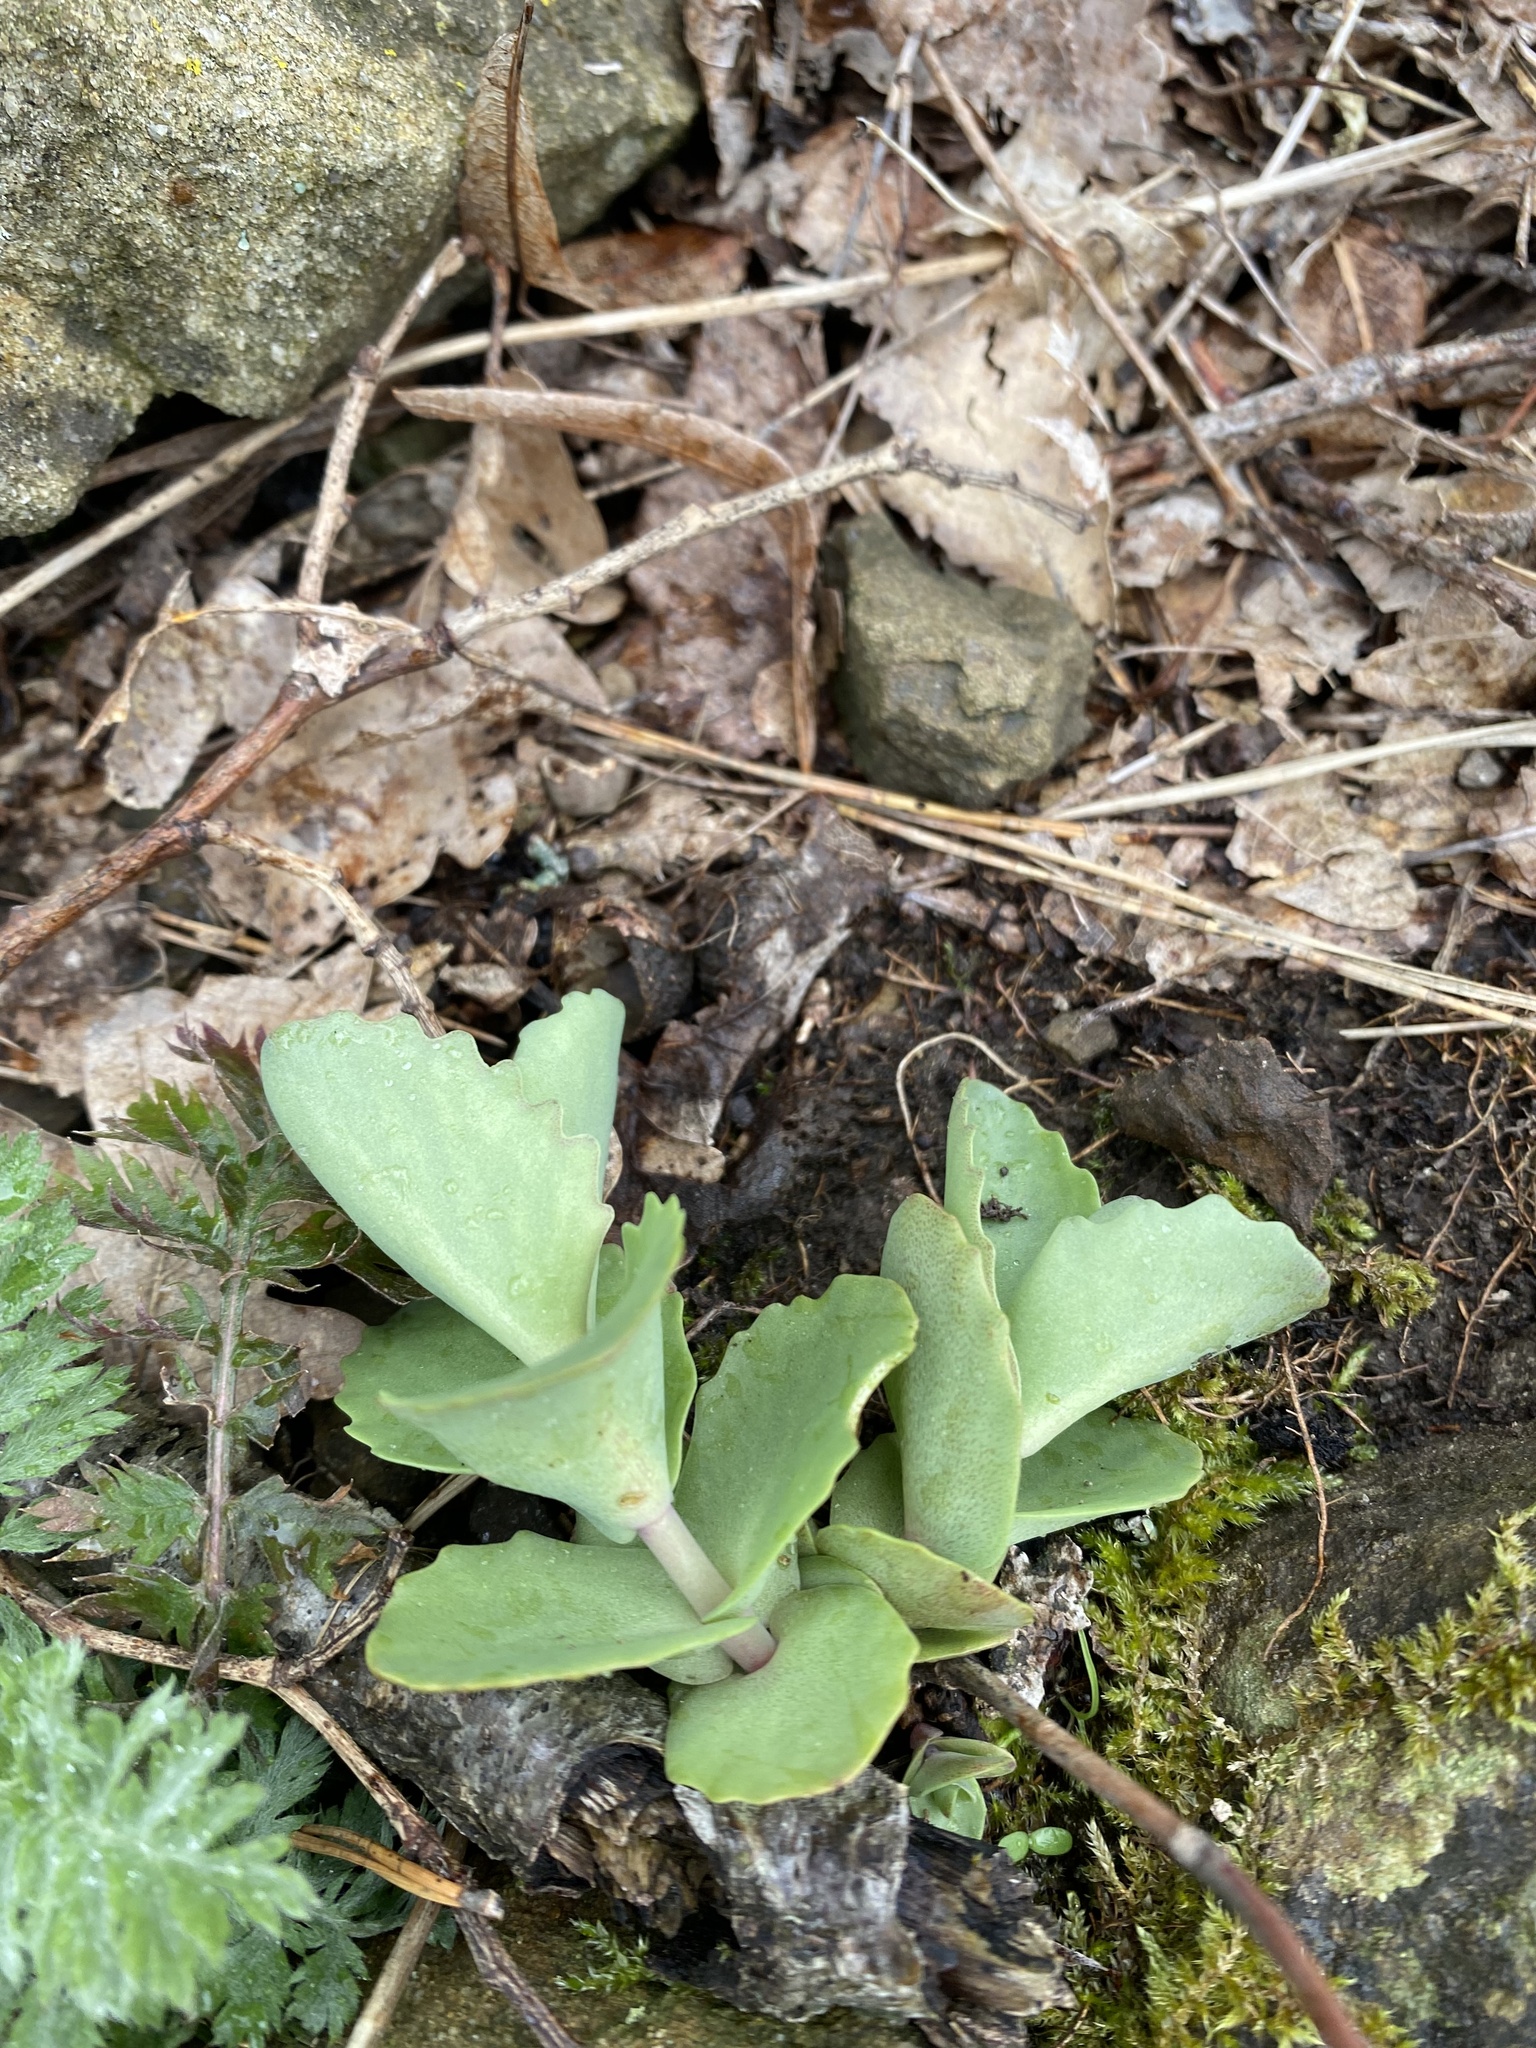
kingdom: Plantae
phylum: Tracheophyta
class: Magnoliopsida
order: Saxifragales
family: Crassulaceae
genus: Hylotelephium
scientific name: Hylotelephium maximum
